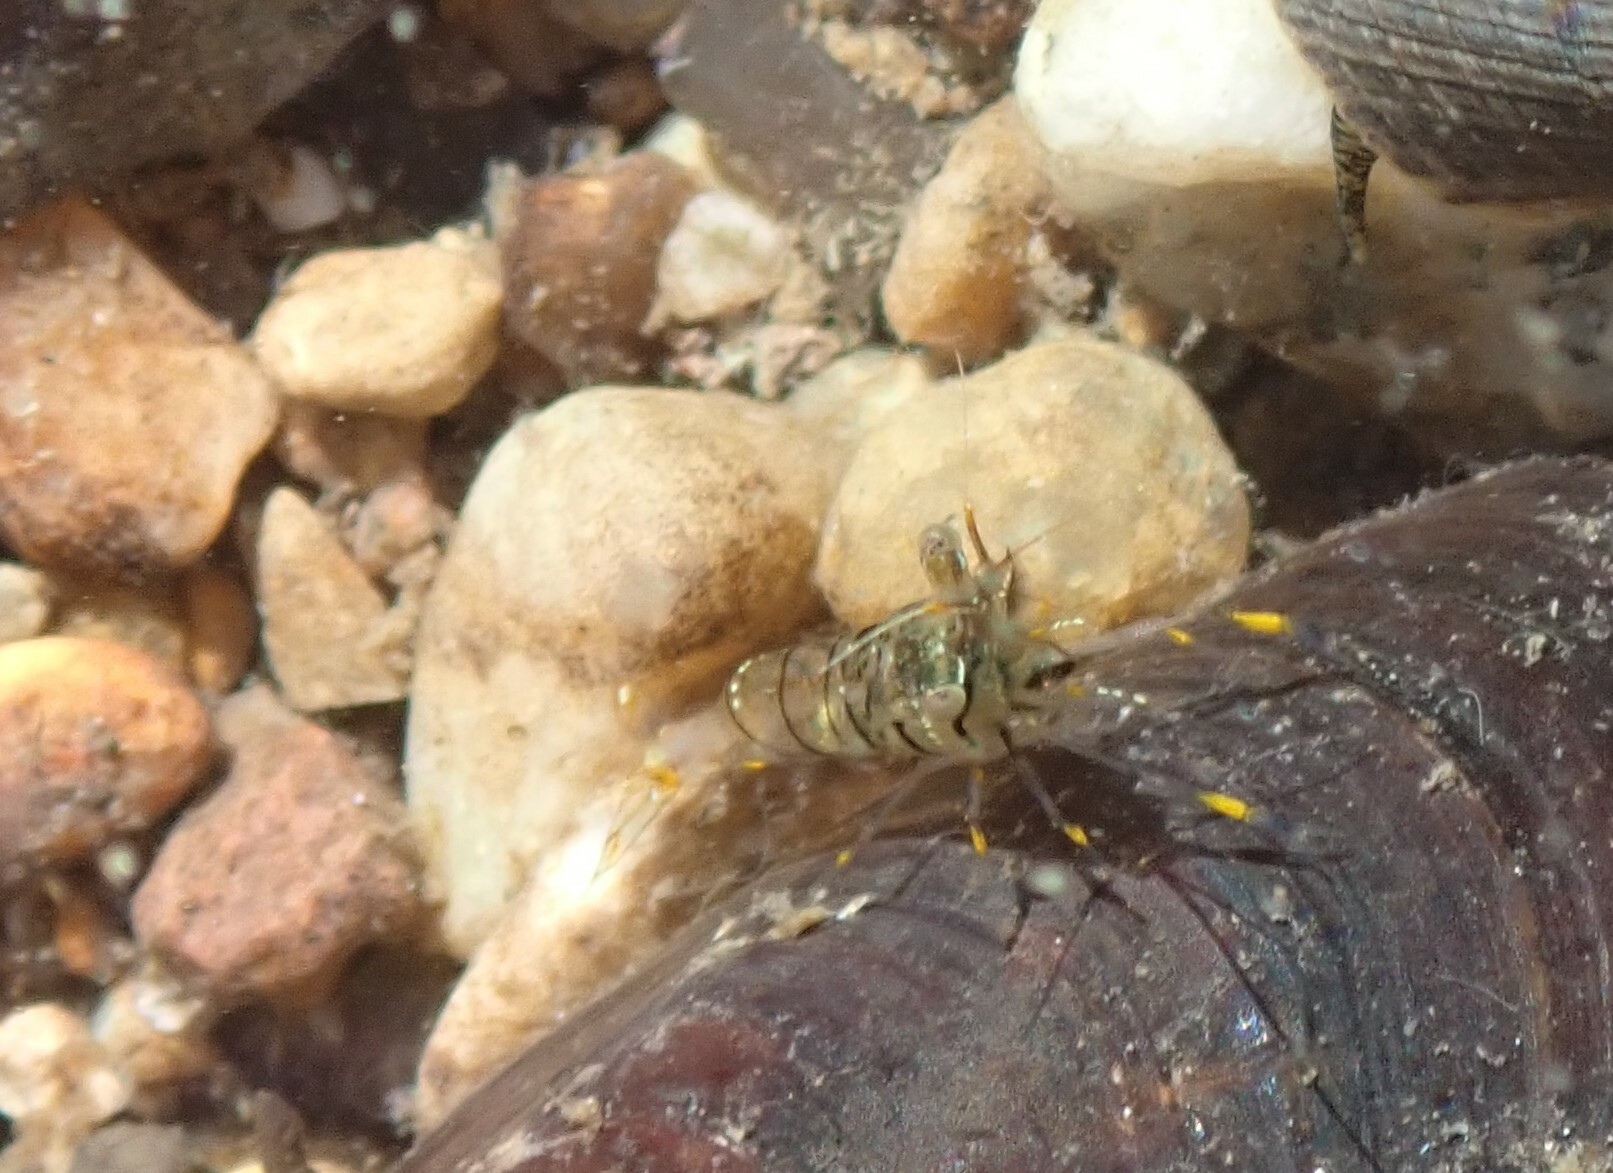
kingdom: Animalia
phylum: Arthropoda
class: Malacostraca
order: Decapoda
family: Palaemonidae
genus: Palaemon
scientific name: Palaemon elegans
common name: Grass prawm
